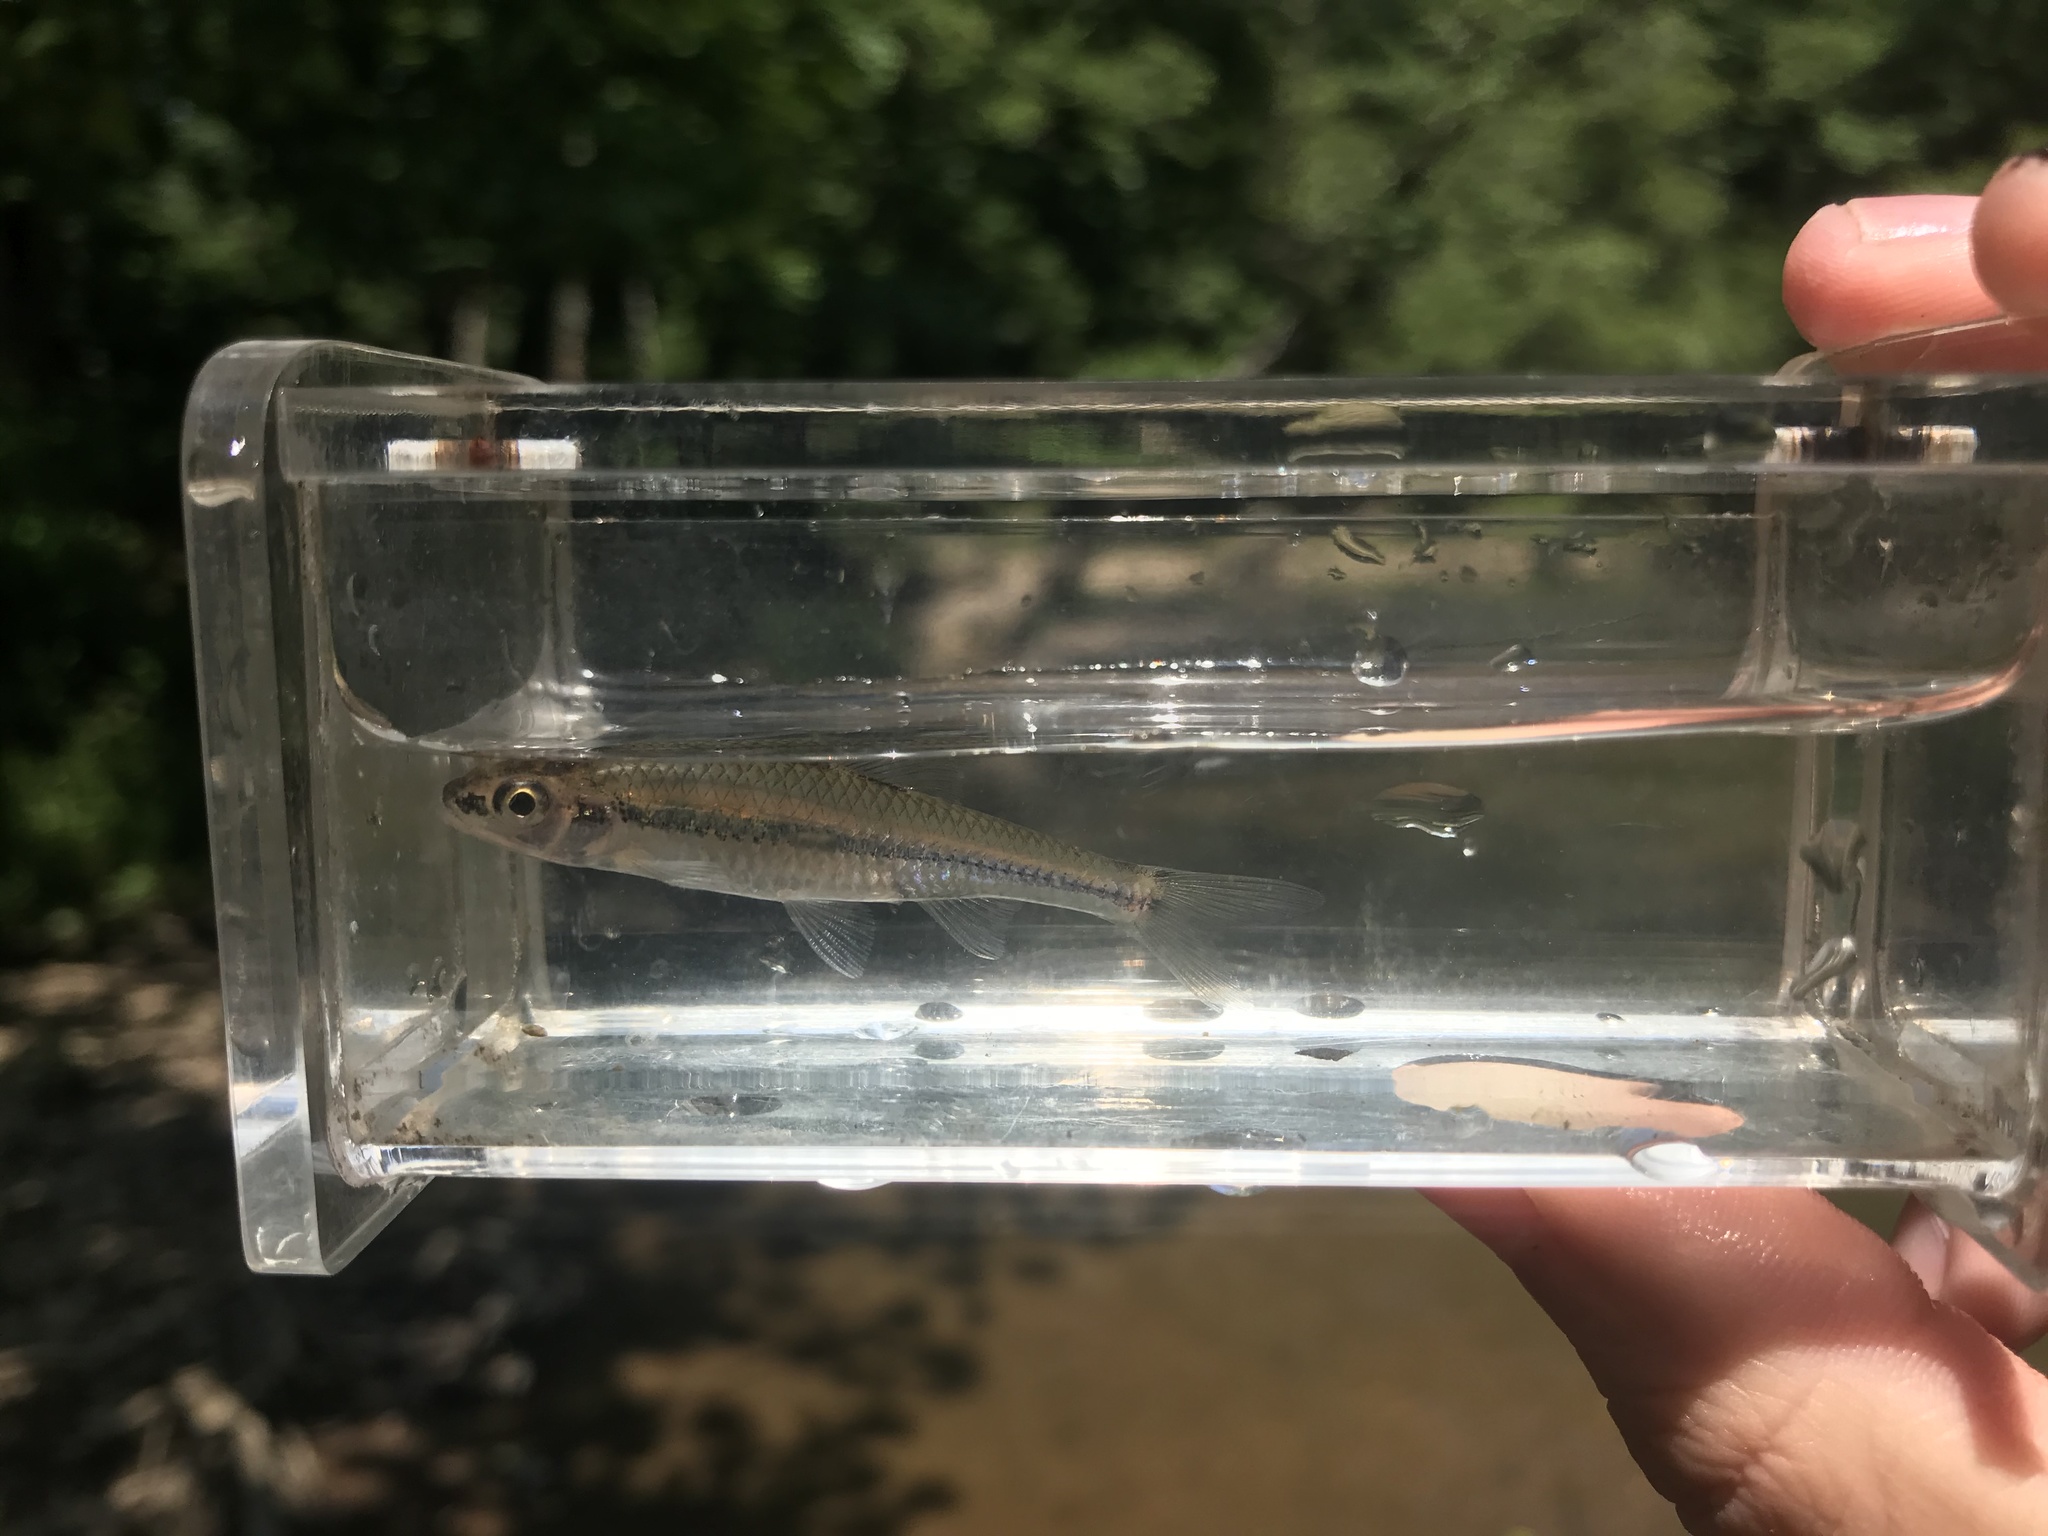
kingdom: Animalia
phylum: Chordata
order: Cypriniformes
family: Cyprinidae
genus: Notropis
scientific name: Notropis
